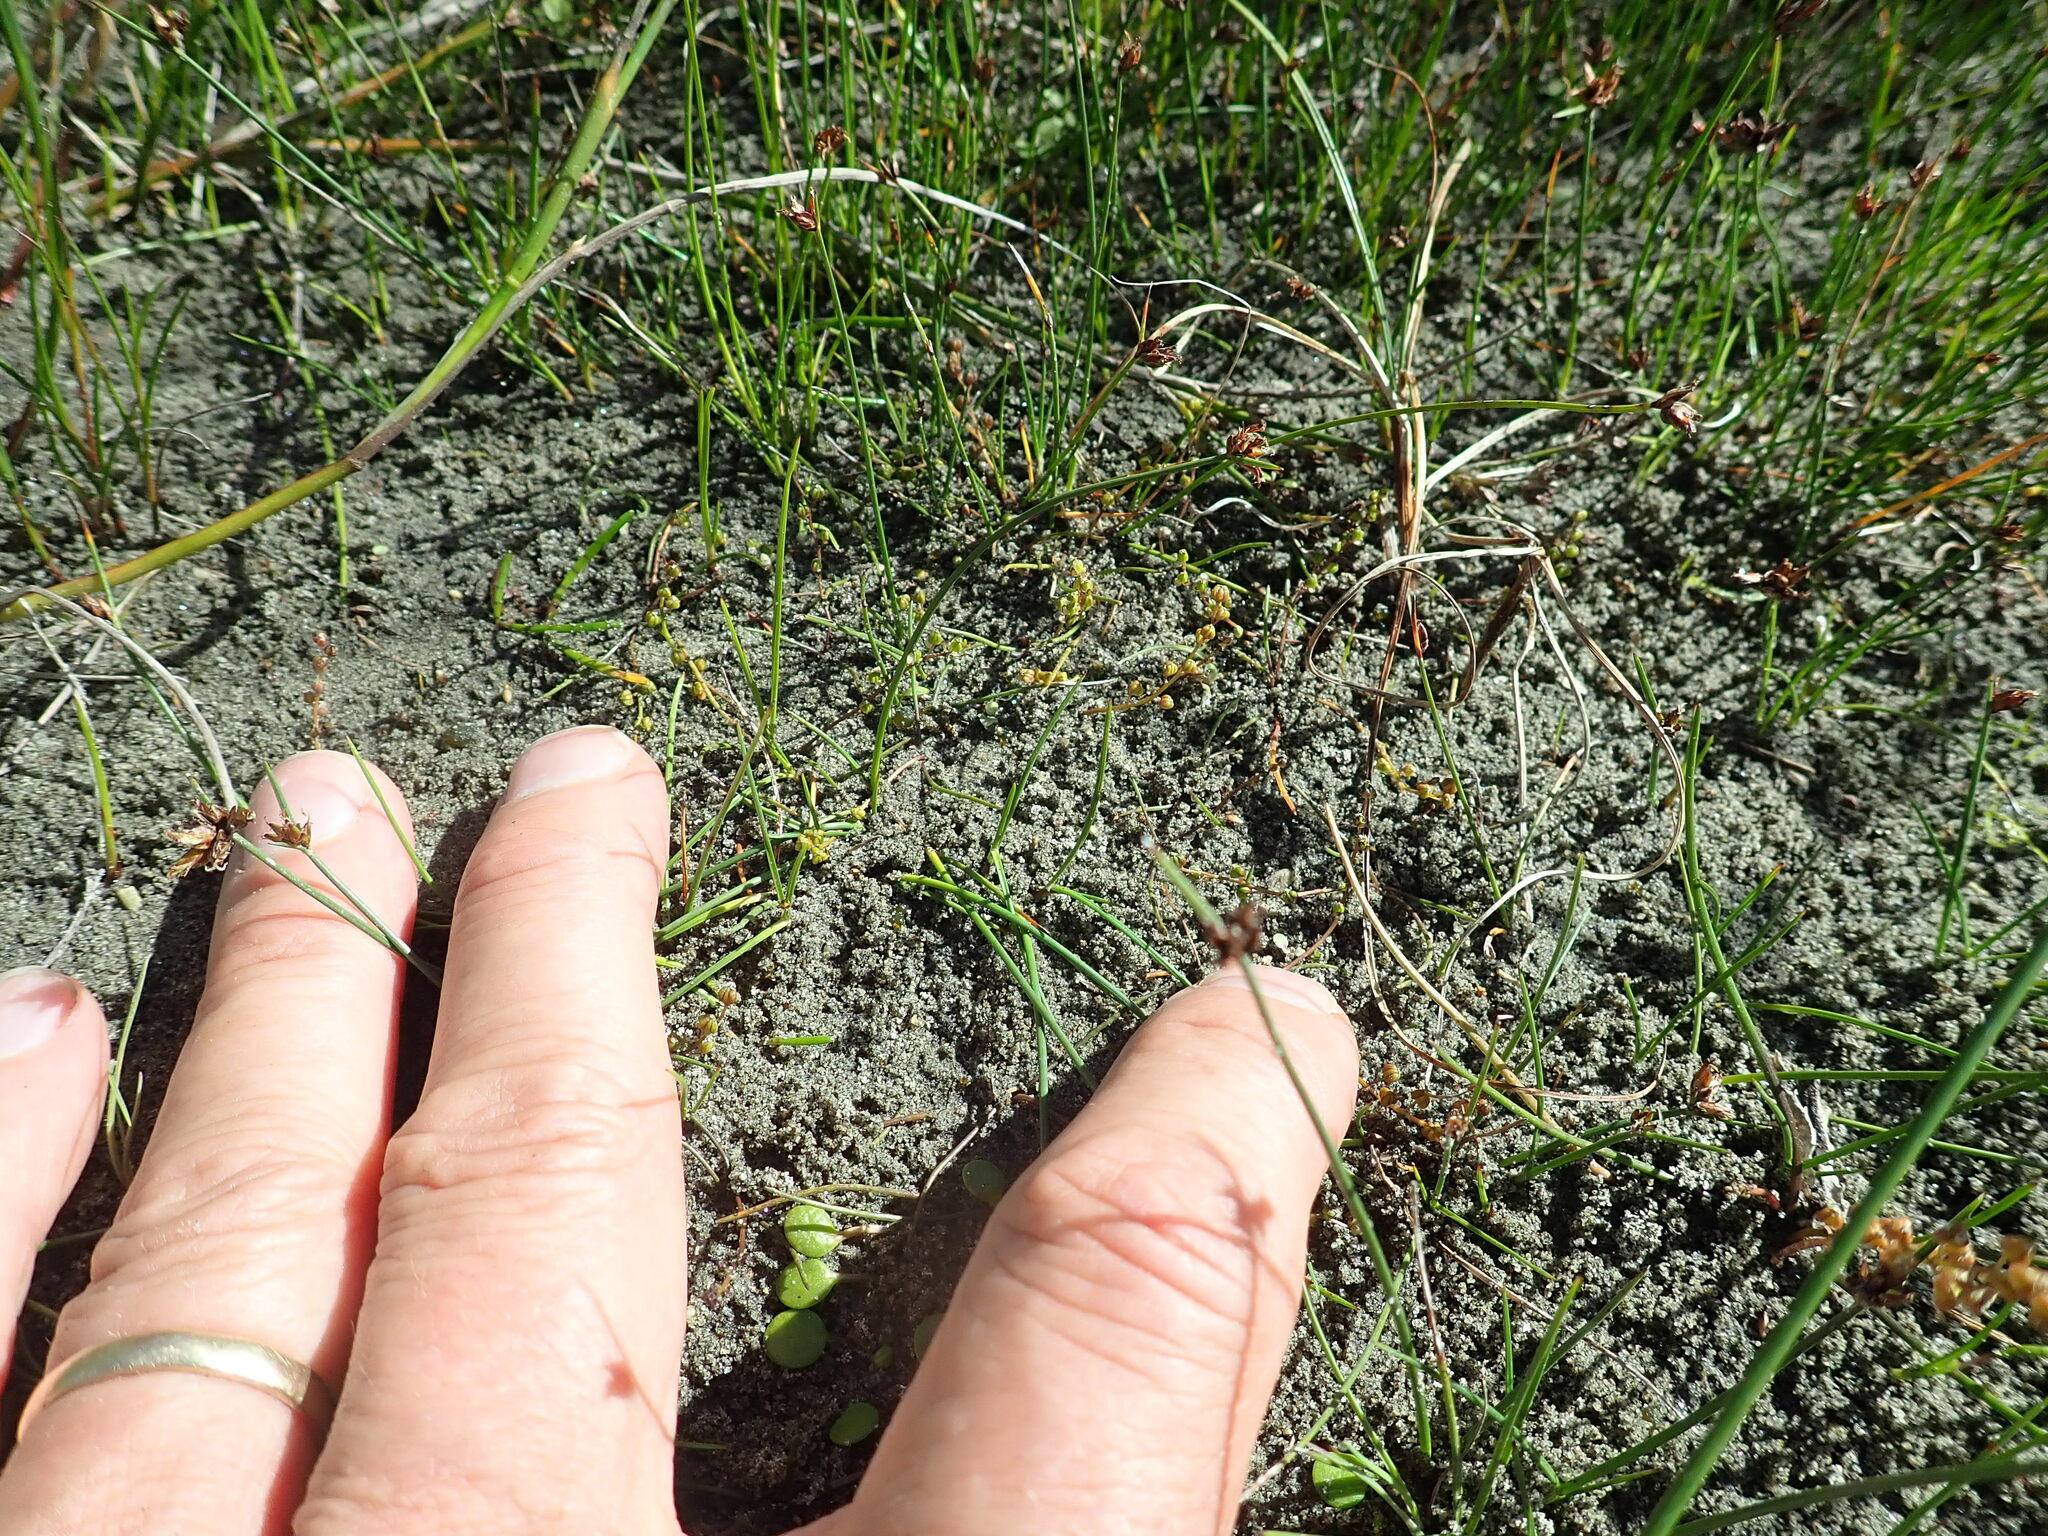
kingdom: Plantae
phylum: Tracheophyta
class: Liliopsida
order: Alismatales
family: Juncaginaceae
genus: Triglochin
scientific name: Triglochin striata
